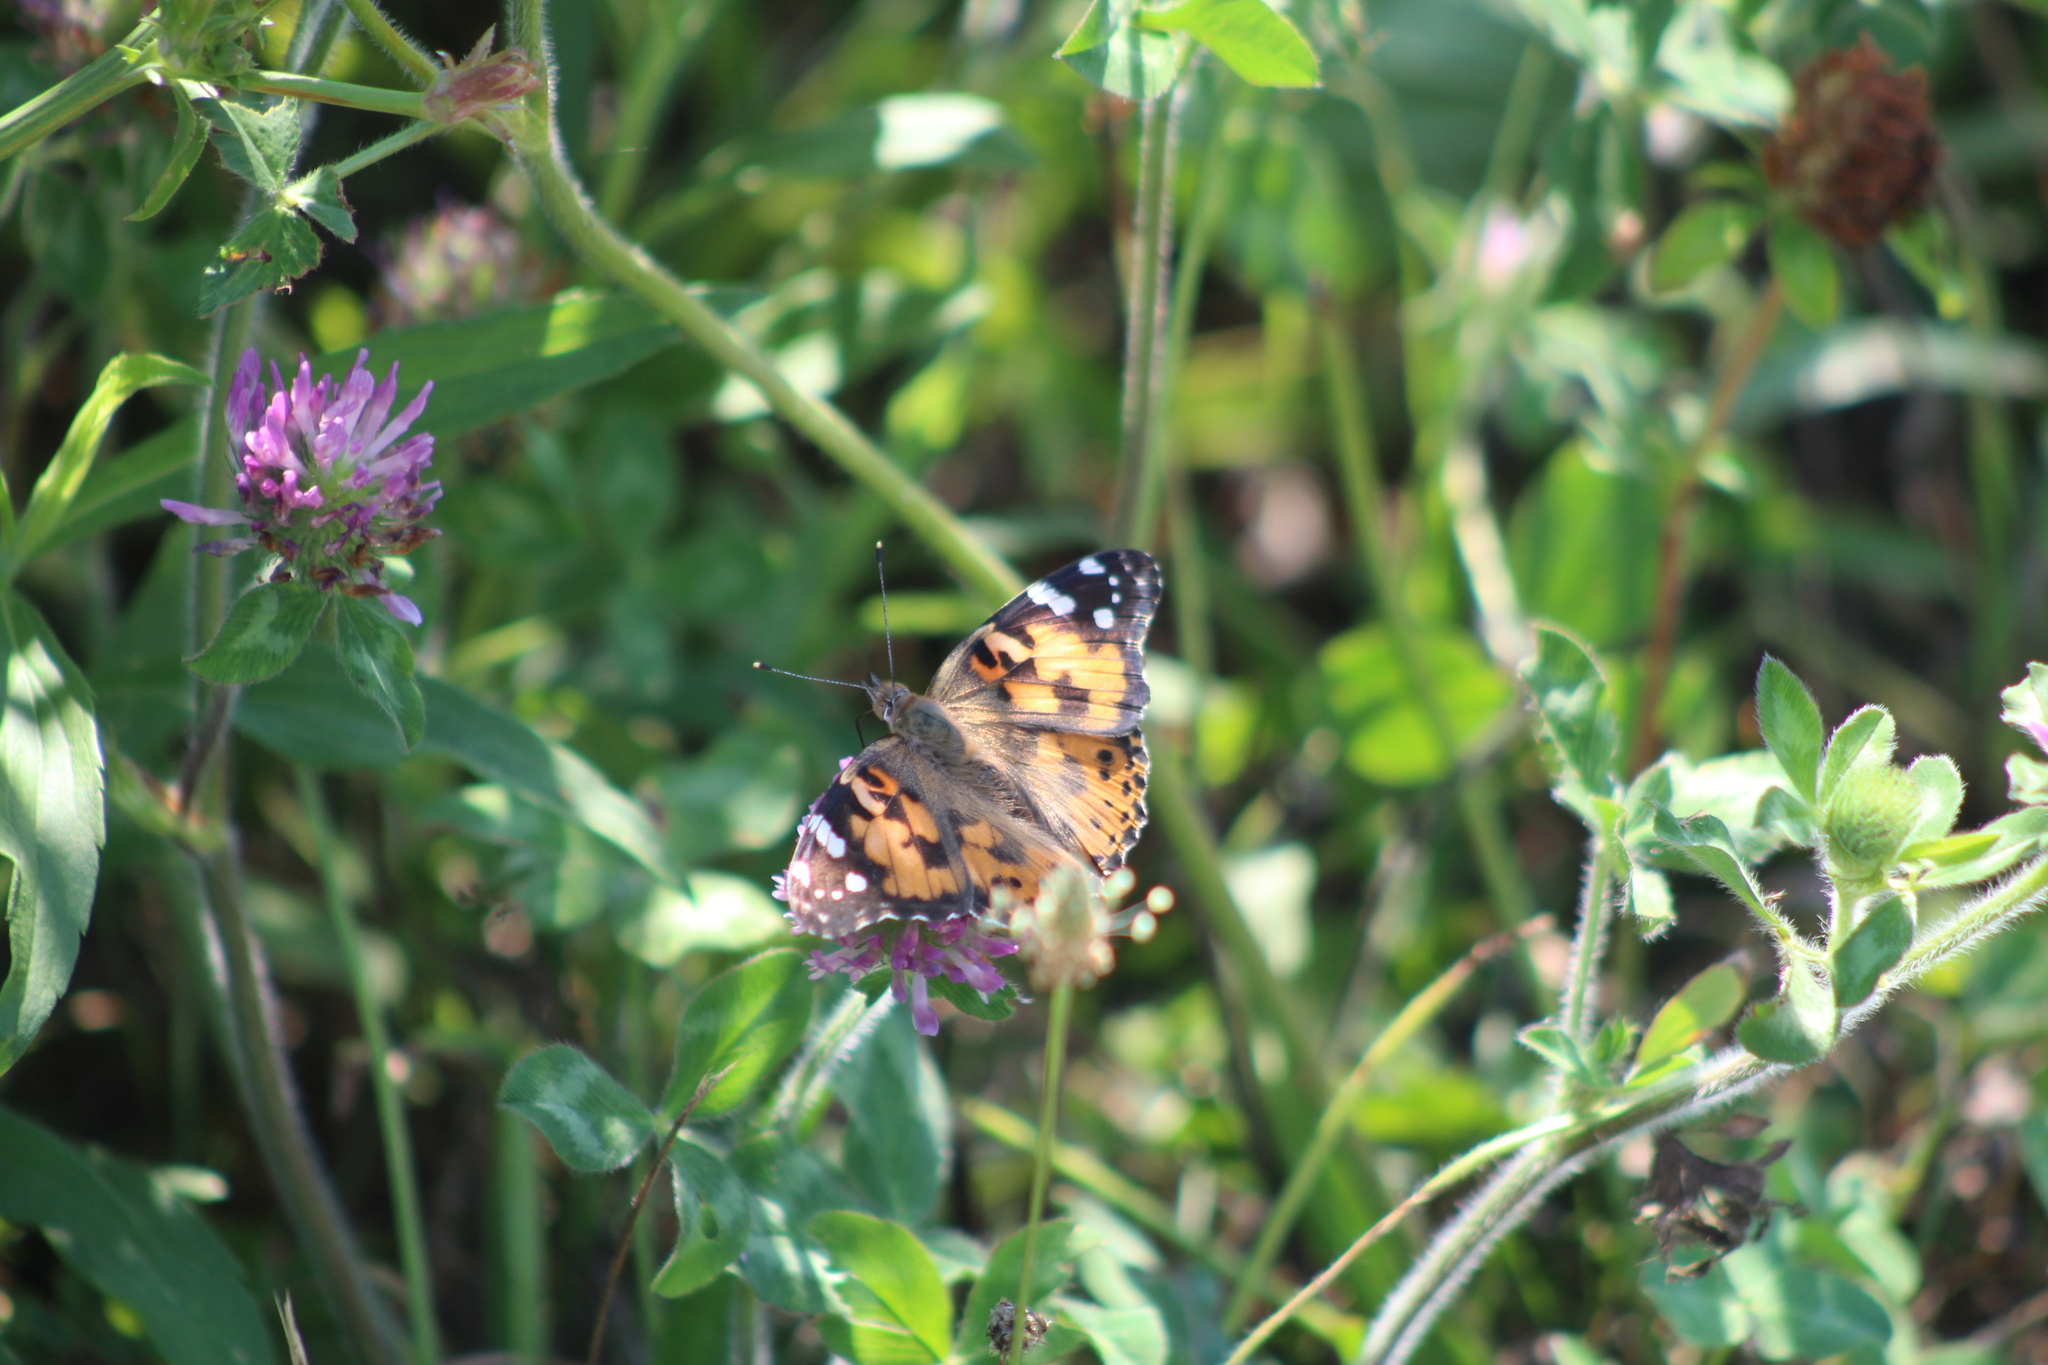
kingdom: Animalia
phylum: Arthropoda
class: Insecta
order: Lepidoptera
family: Nymphalidae
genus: Vanessa
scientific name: Vanessa cardui
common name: Painted lady
